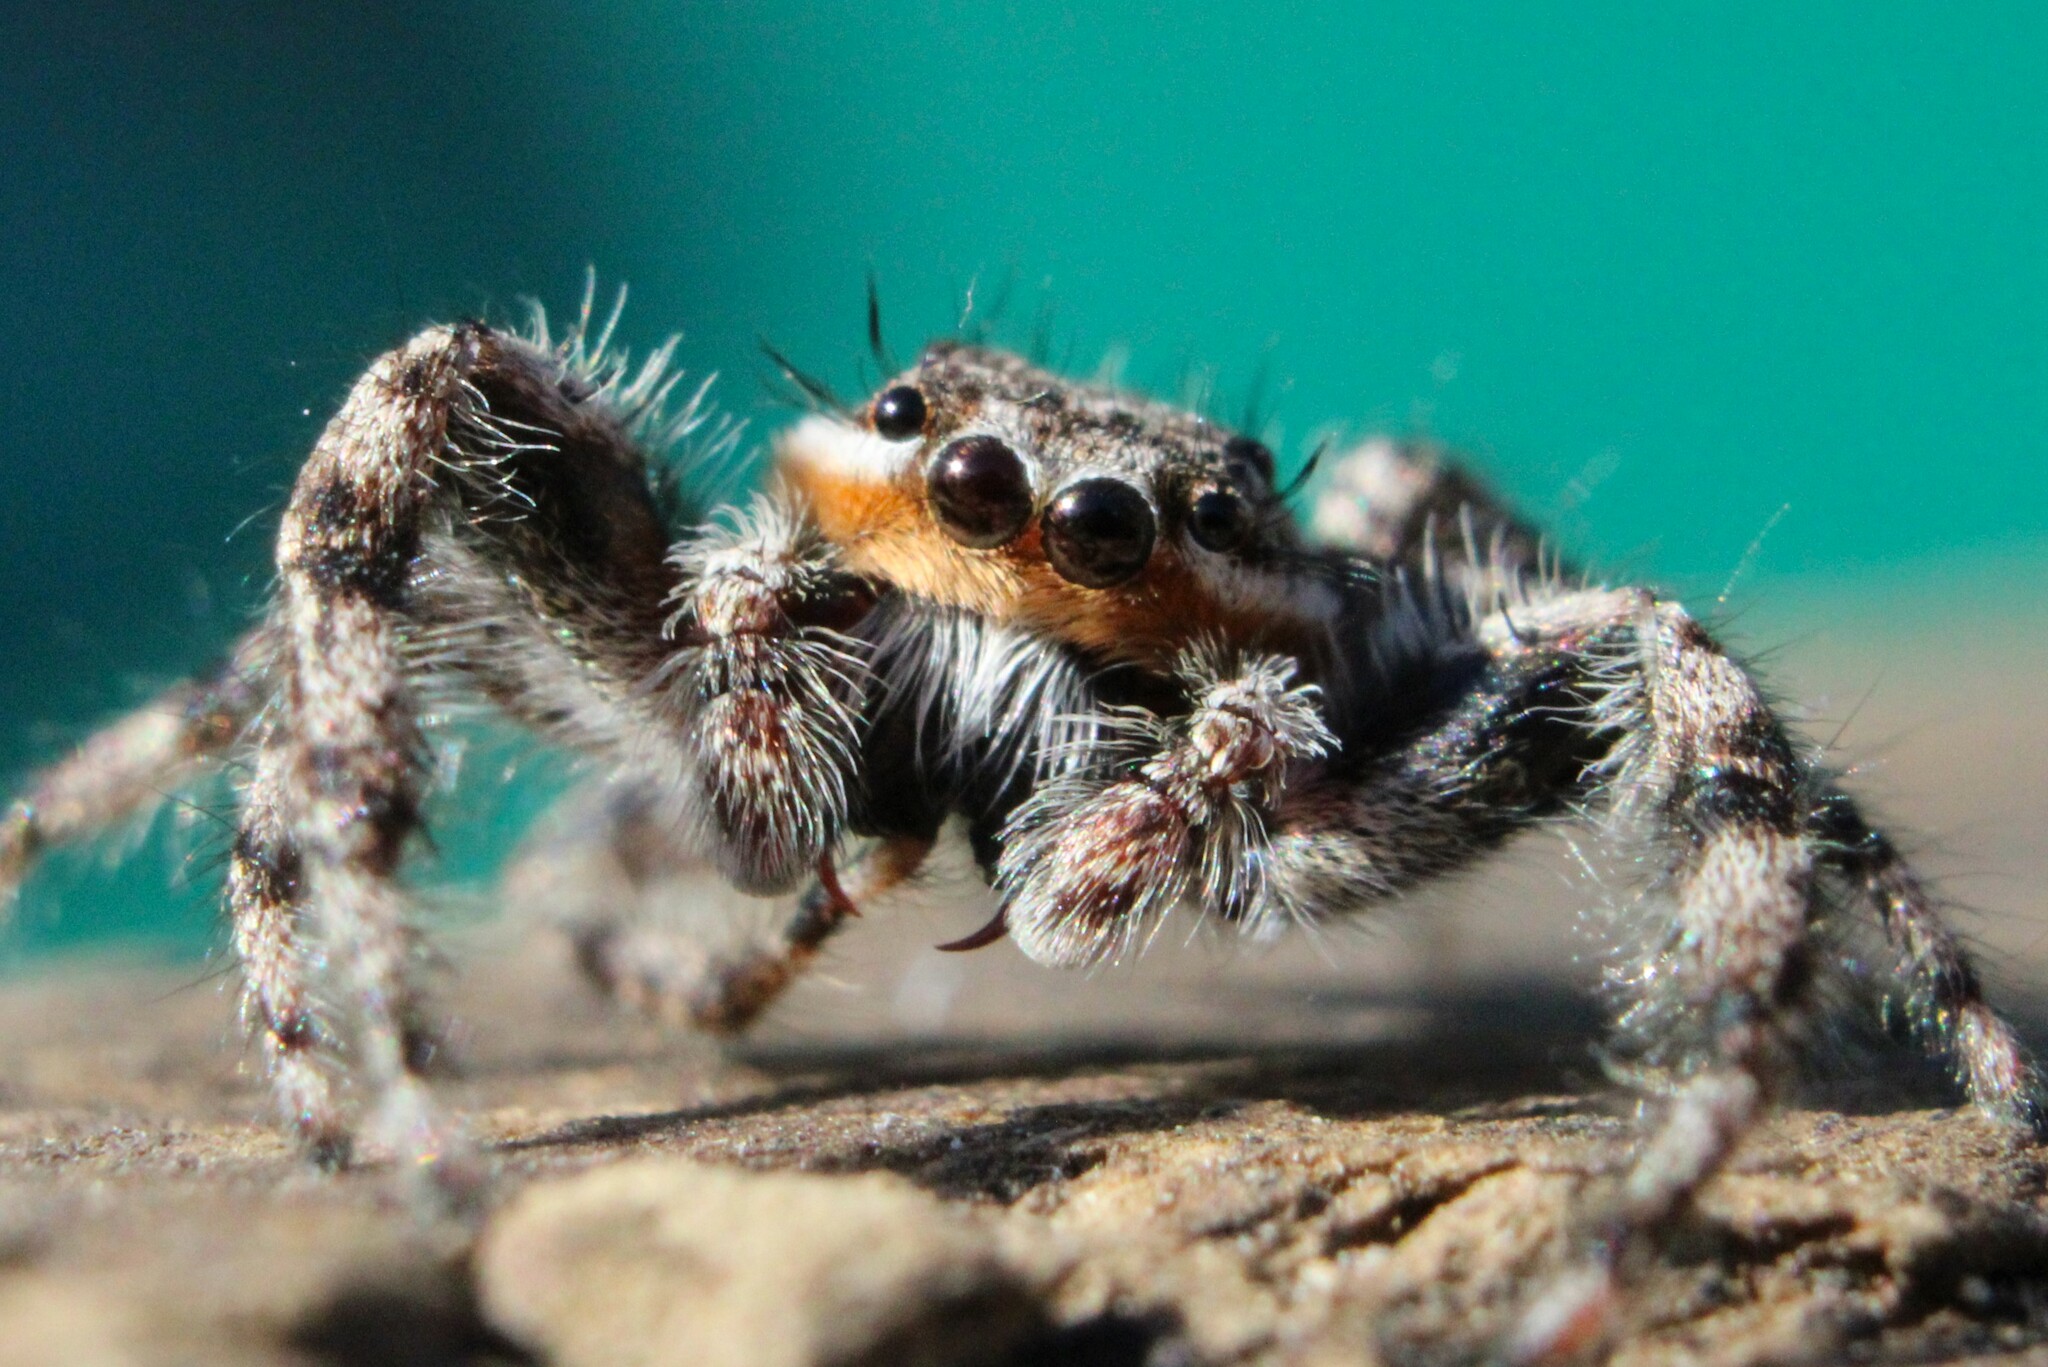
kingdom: Animalia
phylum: Arthropoda
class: Arachnida
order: Araneae
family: Salticidae
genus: Platycryptus
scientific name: Platycryptus undatus
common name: Tan jumping spider
